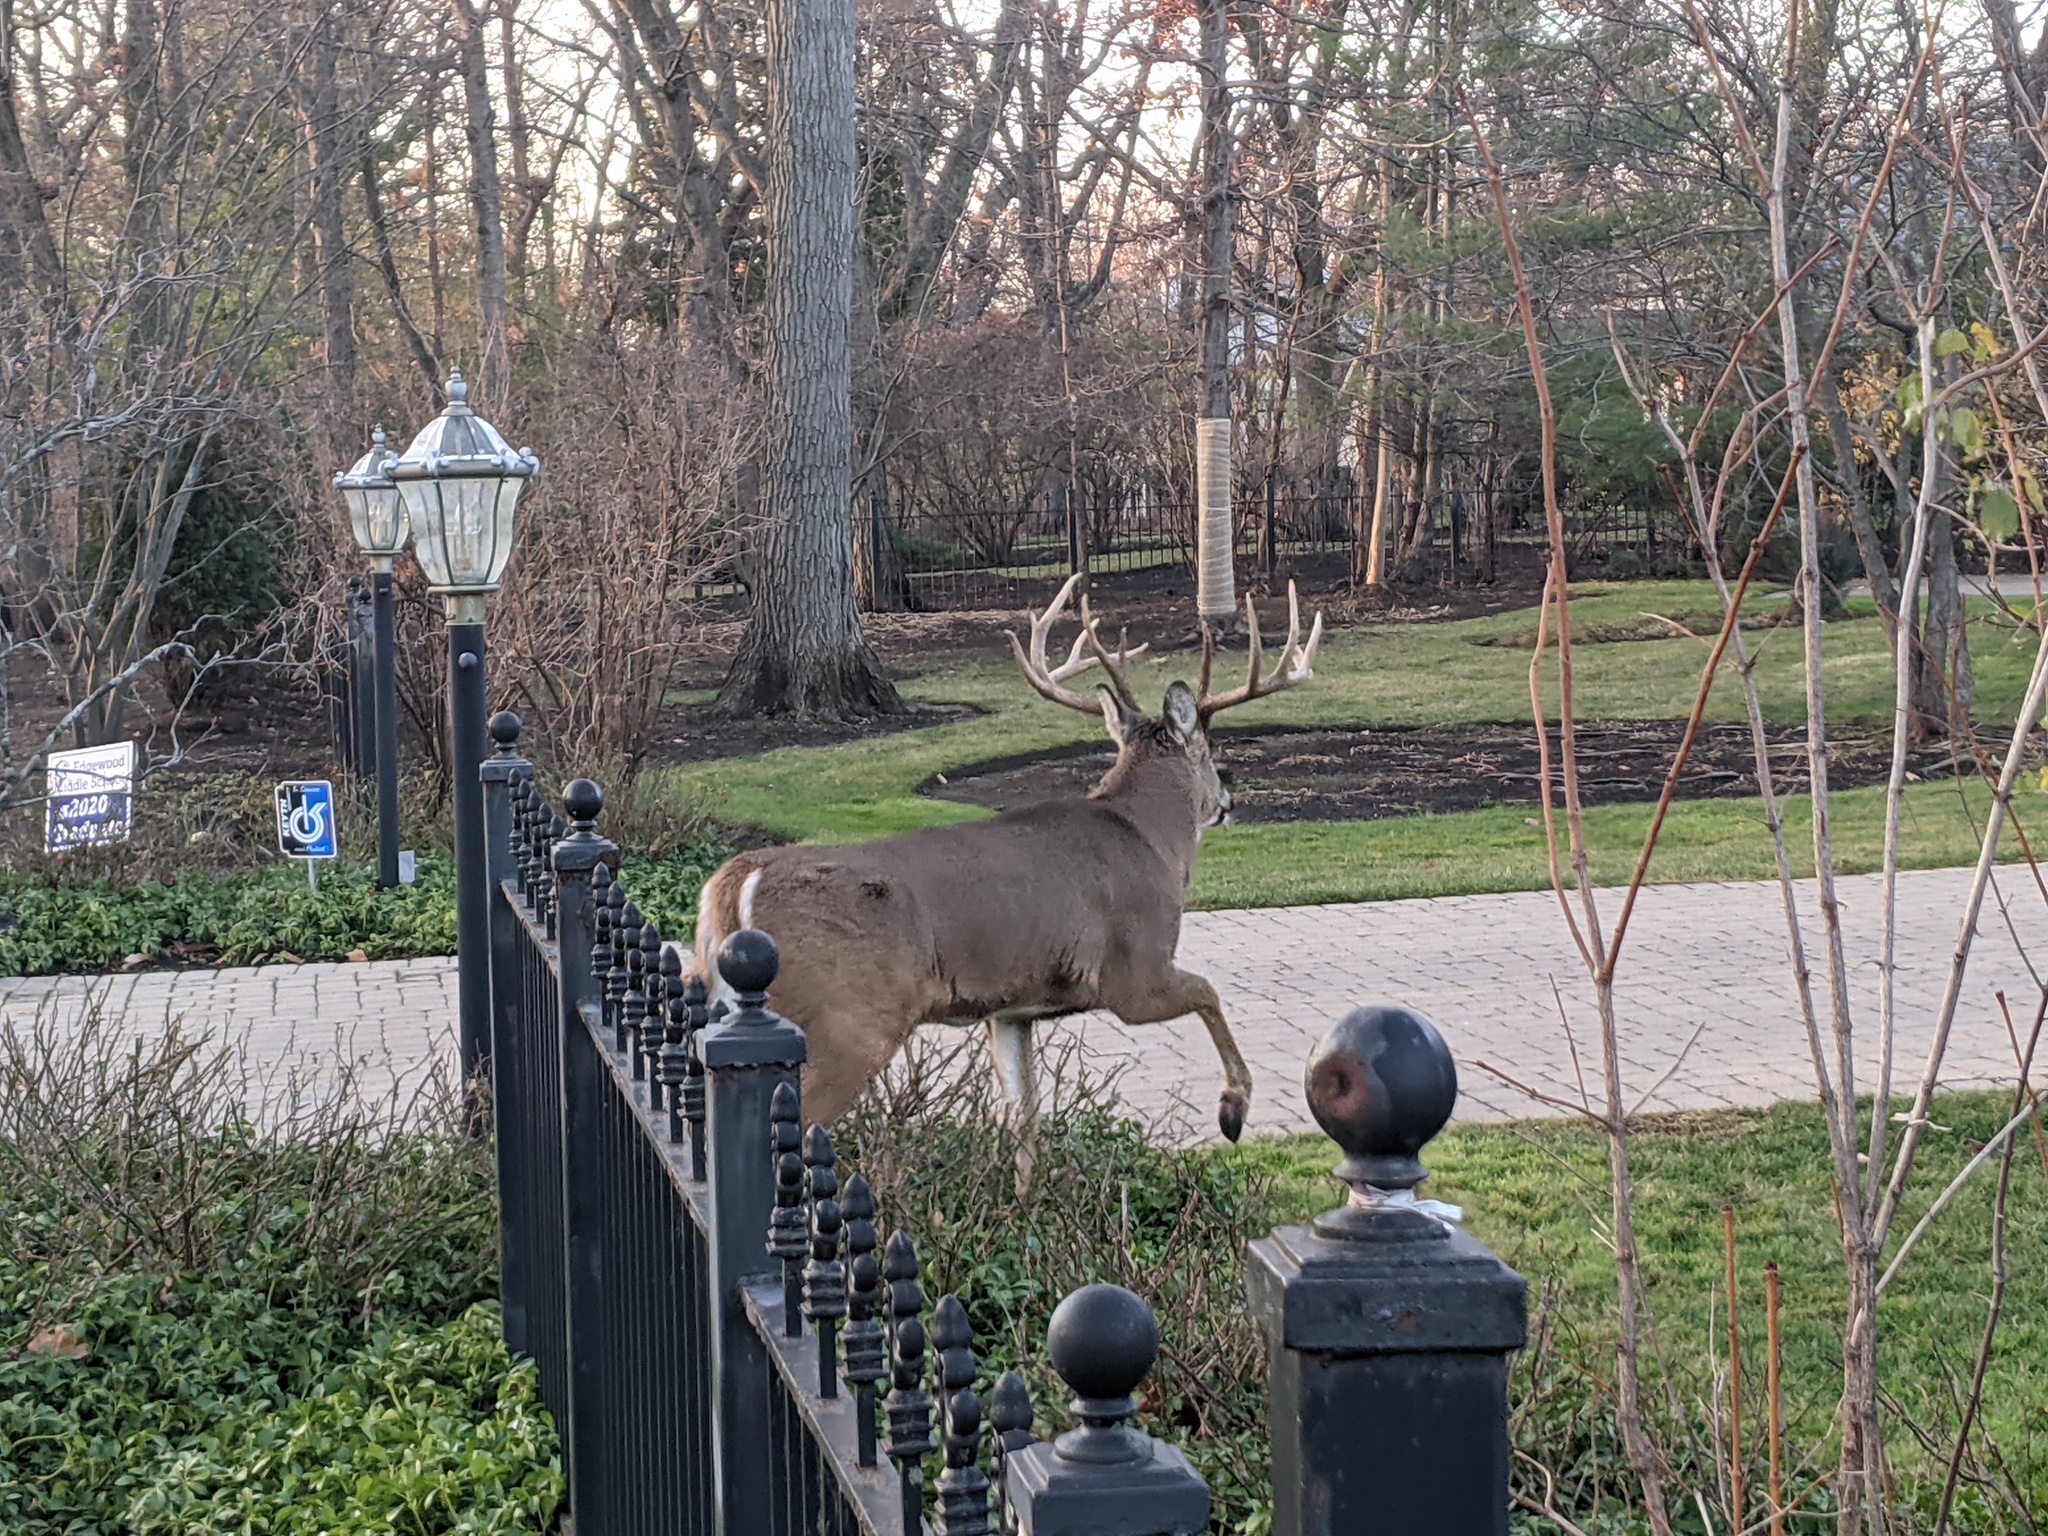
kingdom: Animalia
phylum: Chordata
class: Mammalia
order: Artiodactyla
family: Cervidae
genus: Odocoileus
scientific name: Odocoileus virginianus
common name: White-tailed deer
